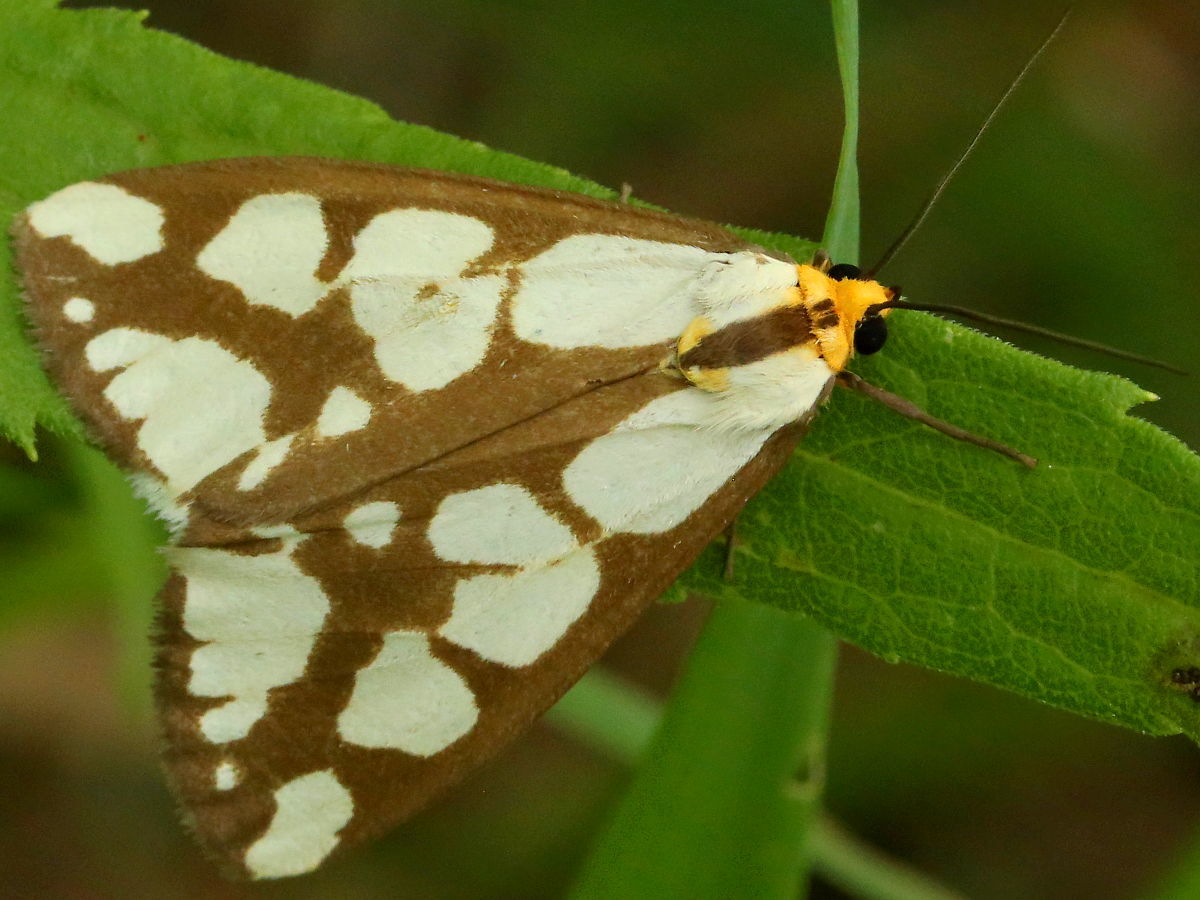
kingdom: Animalia
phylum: Arthropoda
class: Insecta
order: Lepidoptera
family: Erebidae
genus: Haploa
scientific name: Haploa confusa
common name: Confused haploa moth
